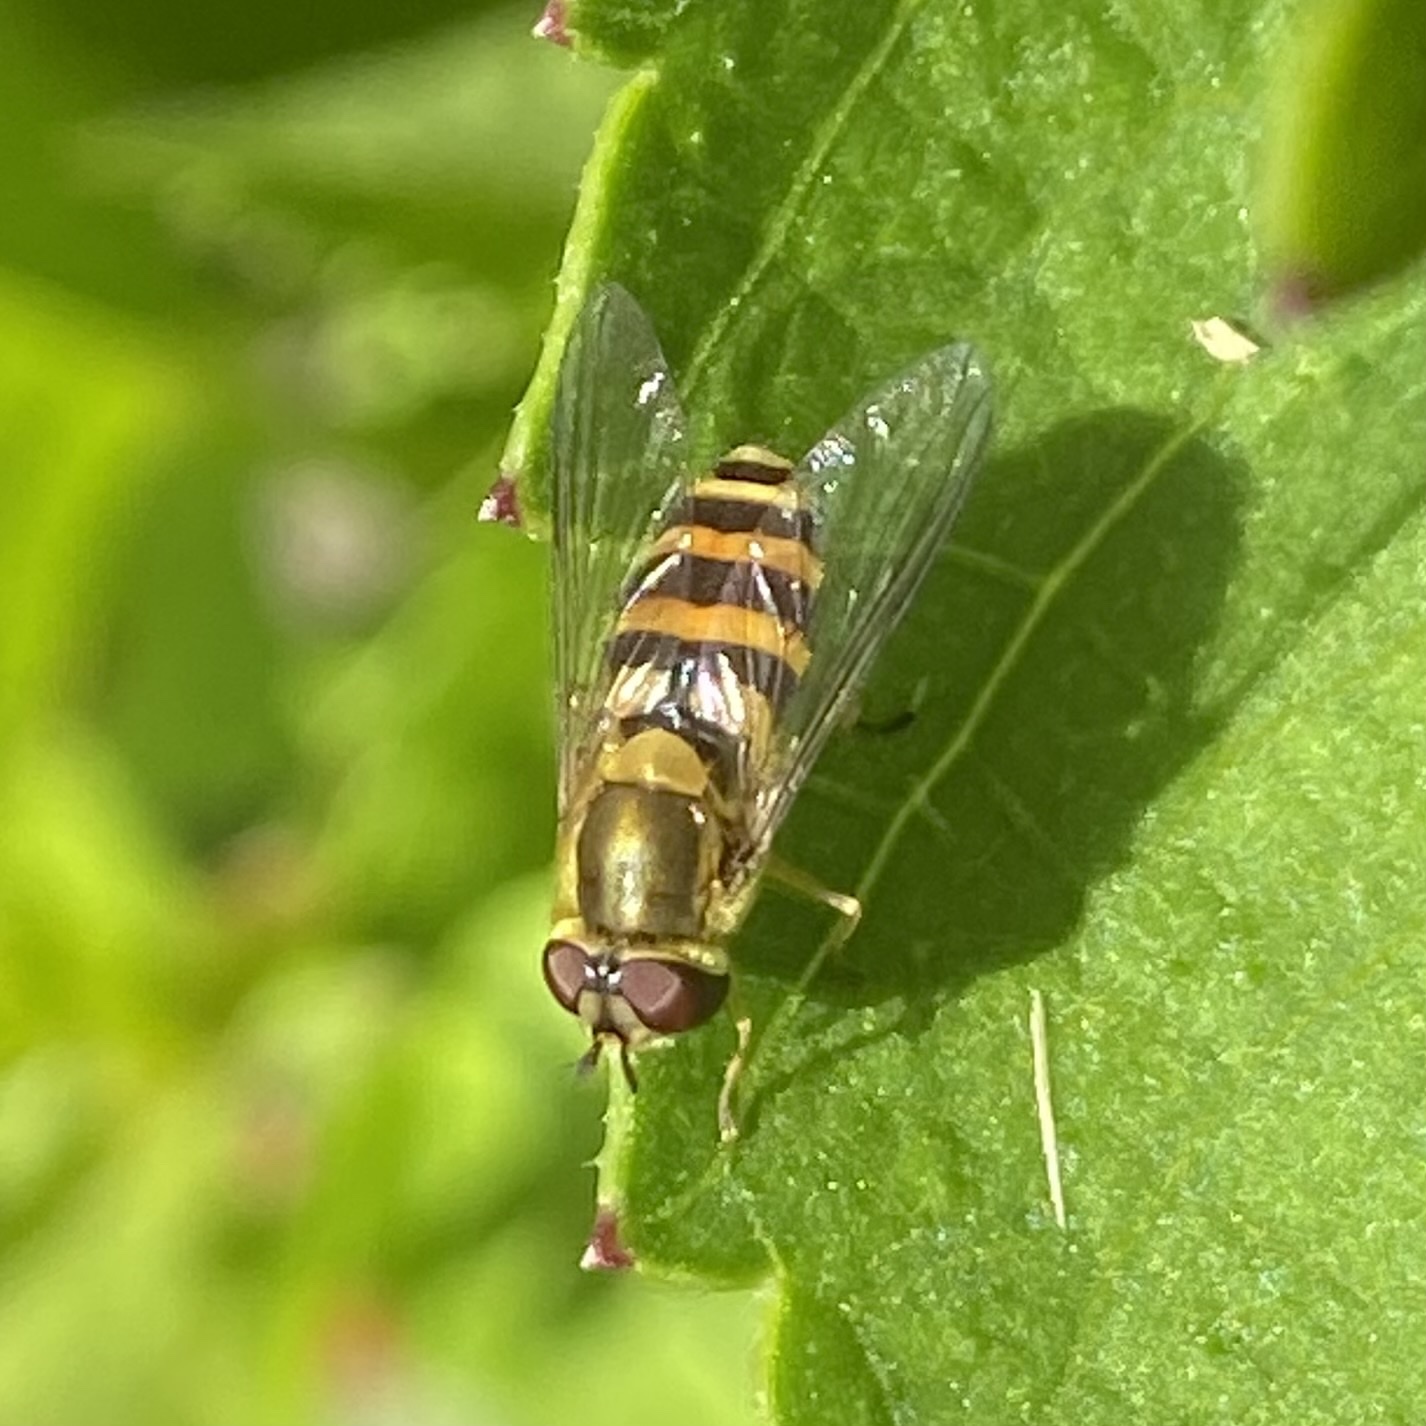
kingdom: Animalia
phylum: Arthropoda
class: Insecta
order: Diptera
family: Syrphidae
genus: Syrphus
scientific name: Syrphus
